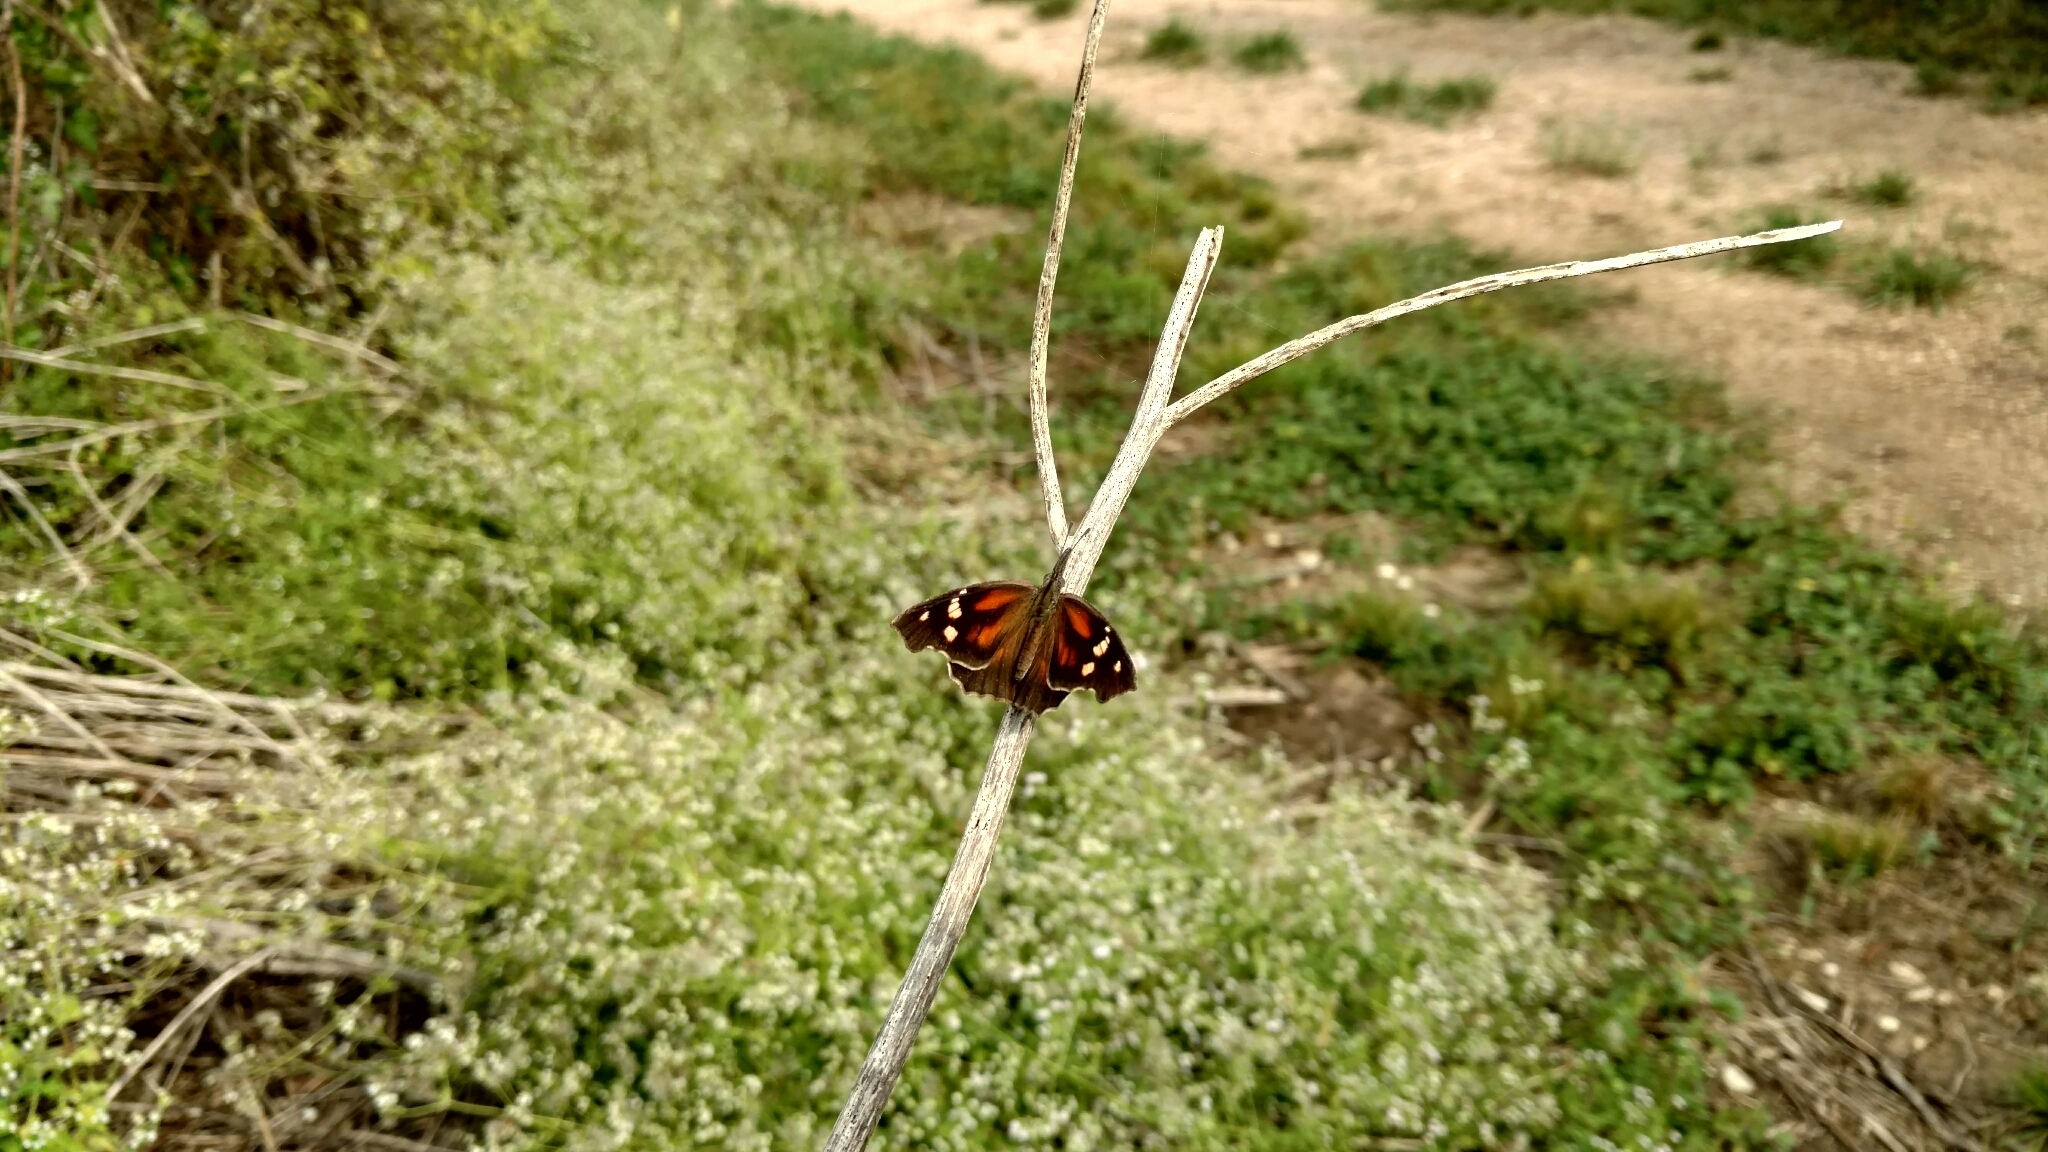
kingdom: Animalia
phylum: Arthropoda
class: Insecta
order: Lepidoptera
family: Nymphalidae
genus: Libytheana
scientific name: Libytheana carinenta
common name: American snout
